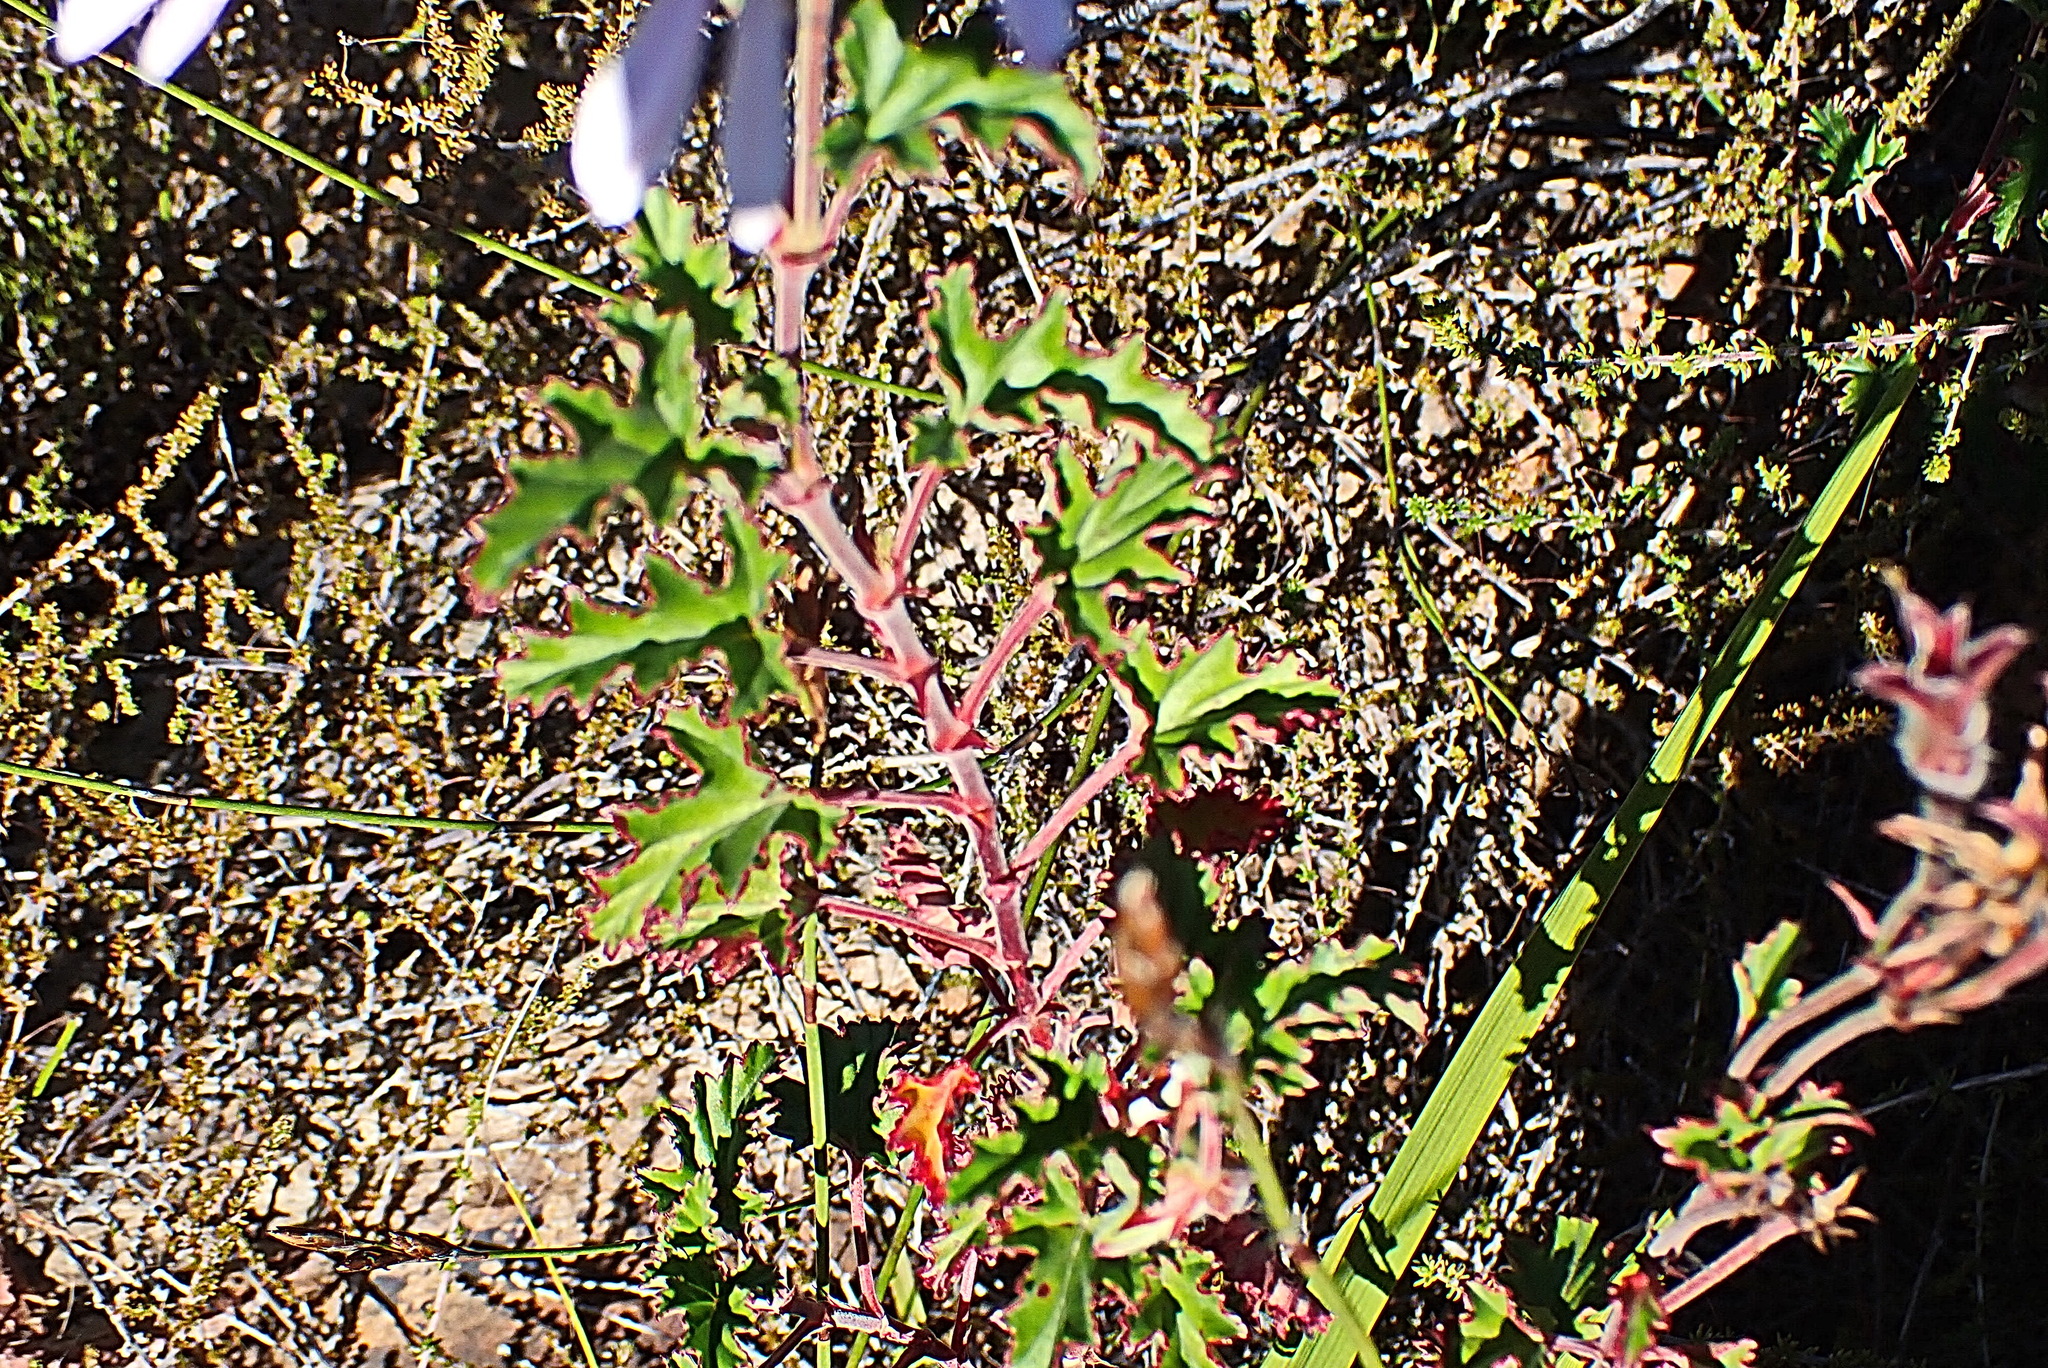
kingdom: Plantae
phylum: Tracheophyta
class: Magnoliopsida
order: Geraniales
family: Geraniaceae
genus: Pelargonium
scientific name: Pelargonium cordifolium
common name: Heart-leaf pelargonium
